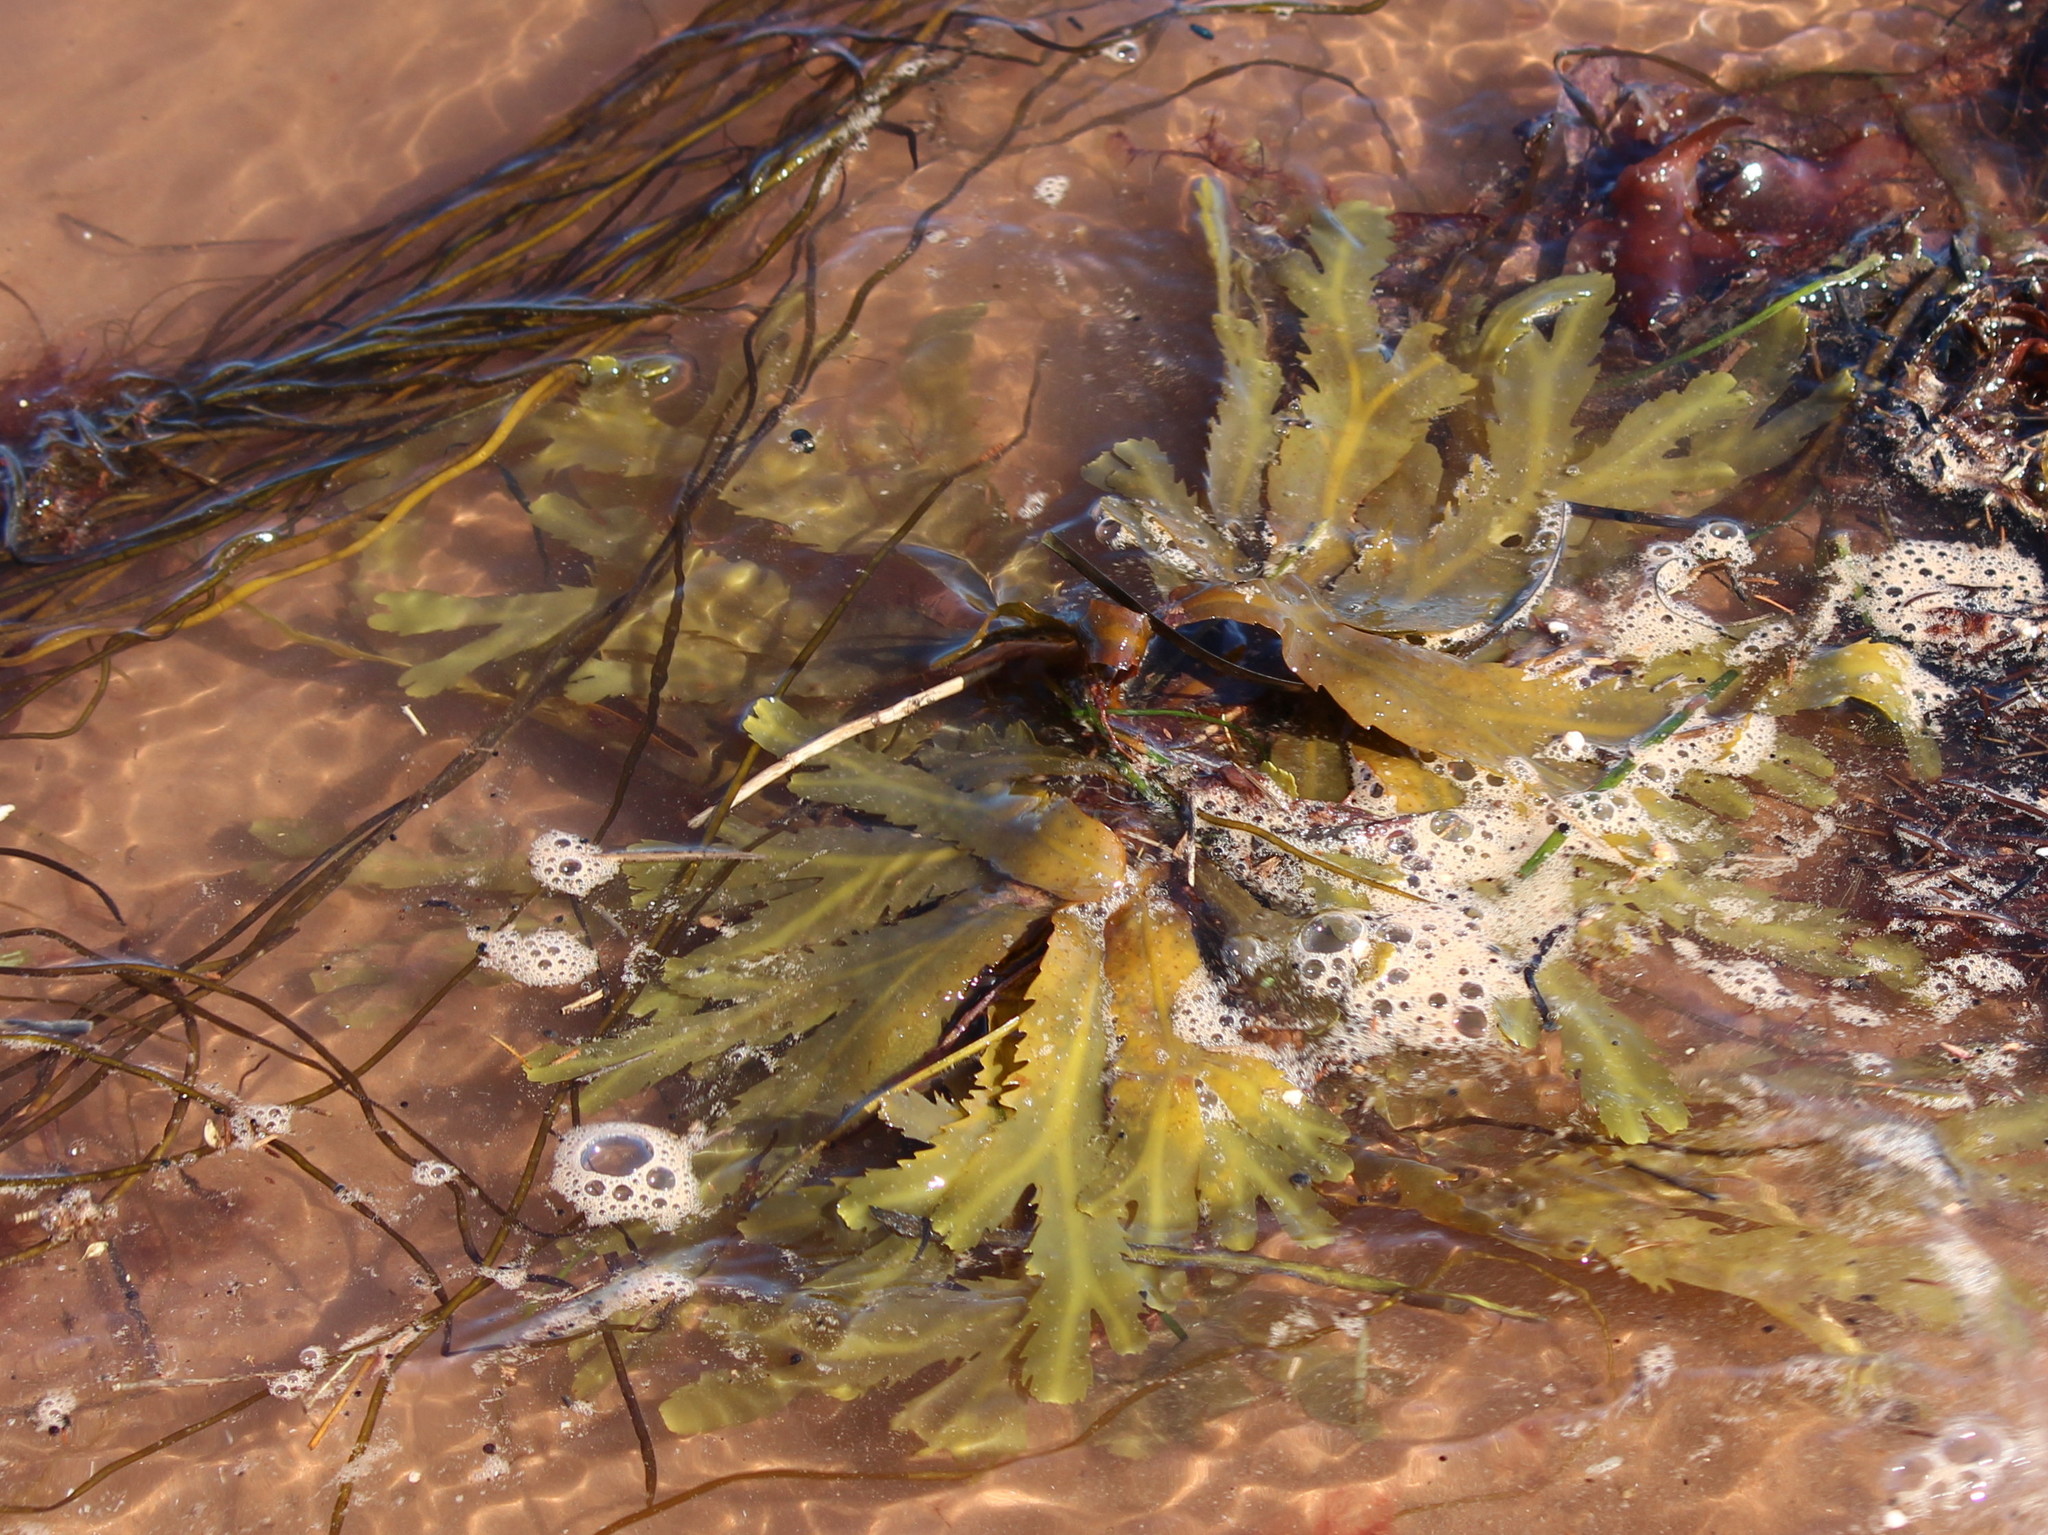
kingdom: Chromista
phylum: Ochrophyta
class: Phaeophyceae
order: Fucales
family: Fucaceae
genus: Fucus
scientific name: Fucus serratus
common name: Toothed wrack
